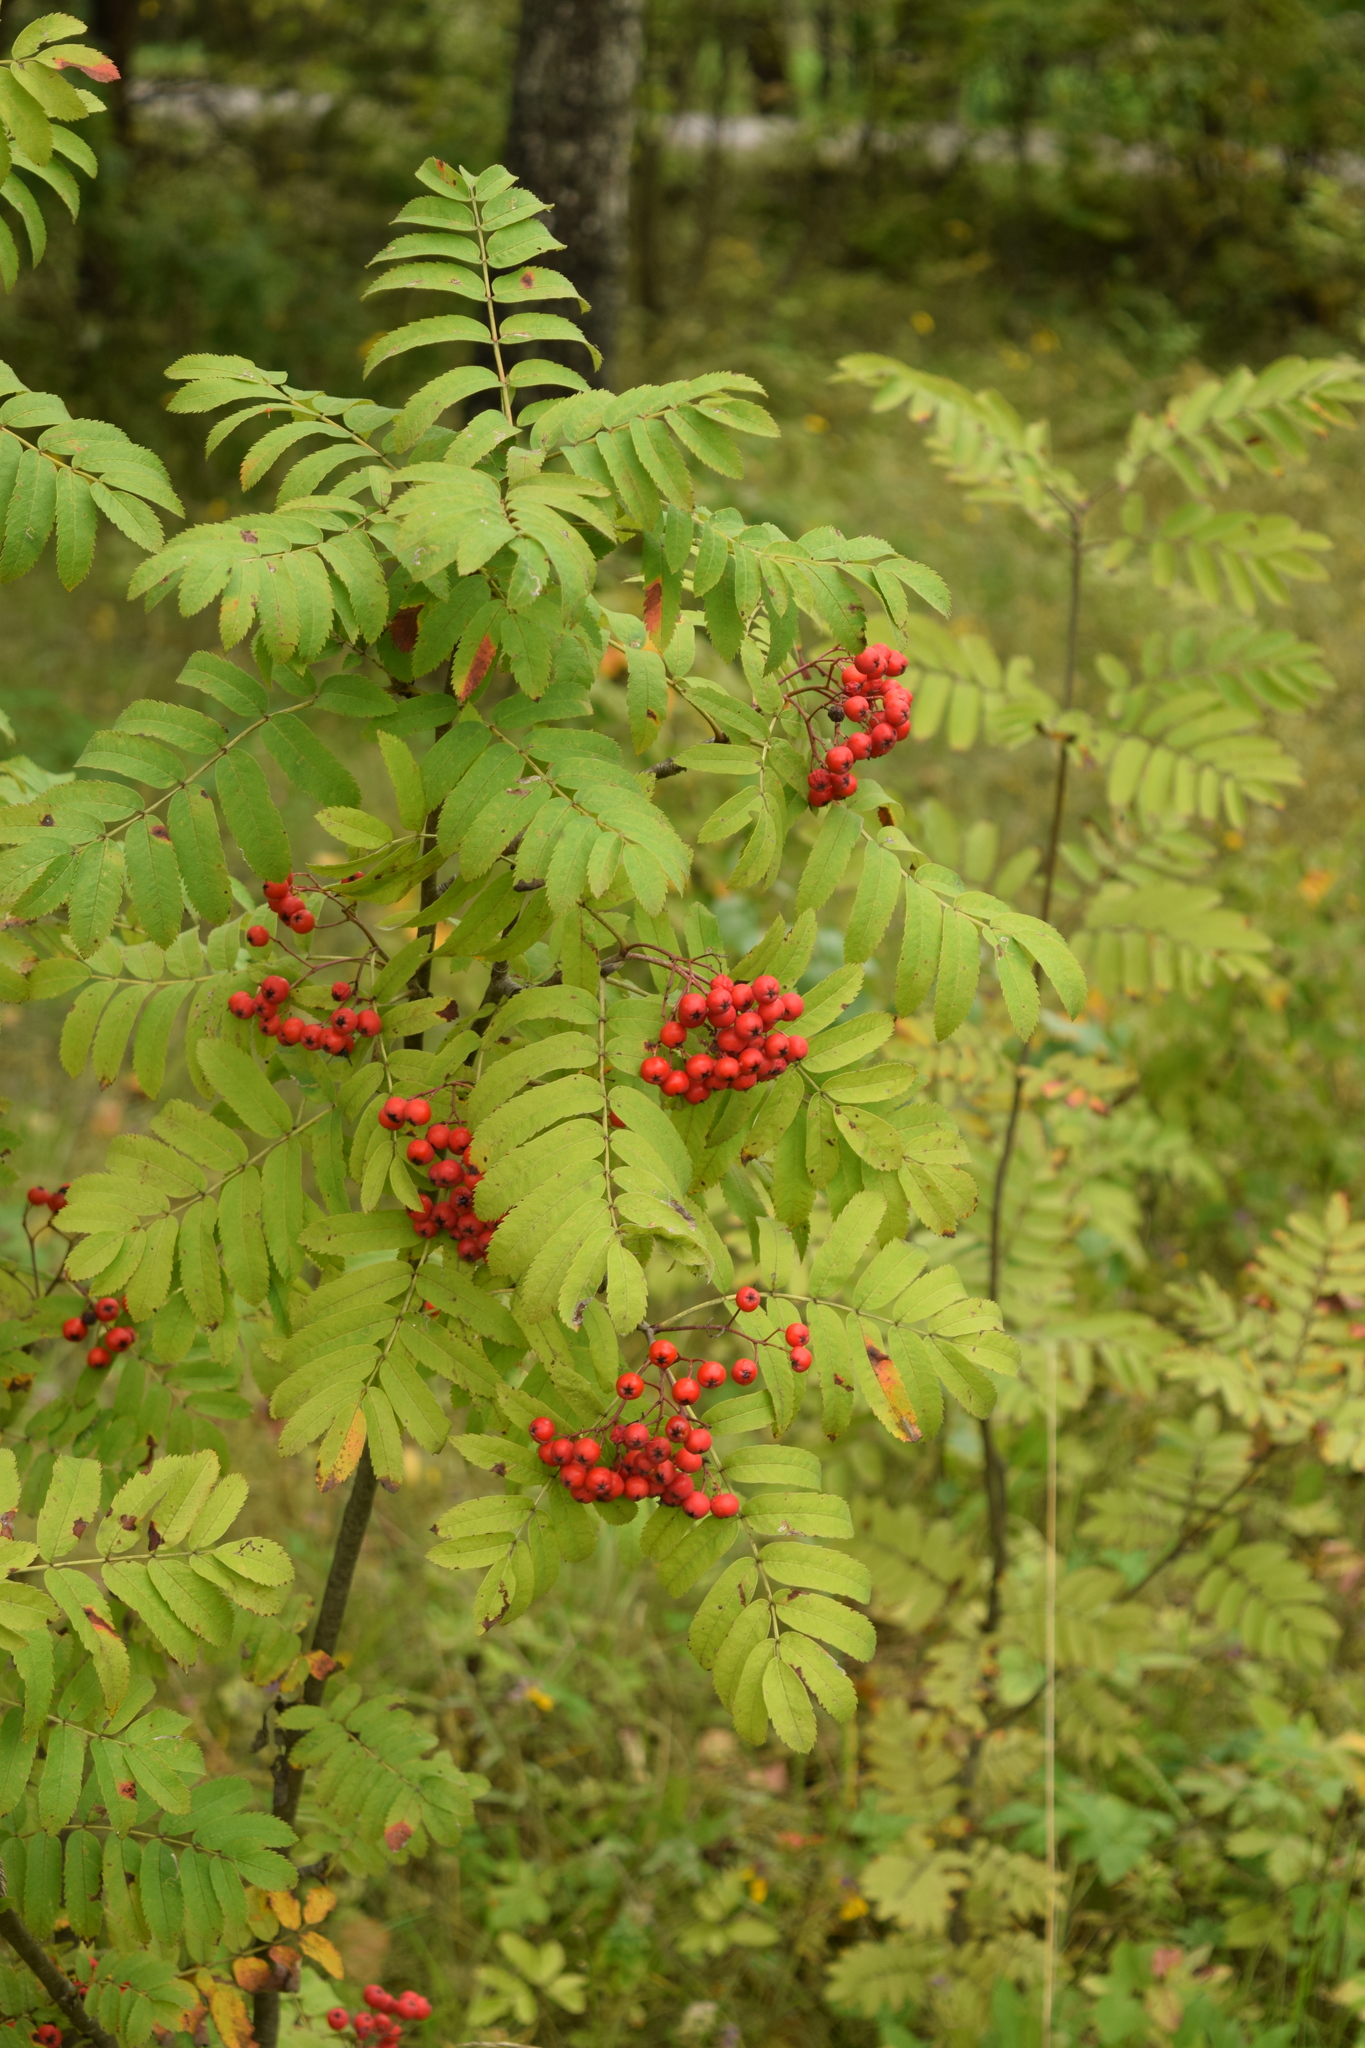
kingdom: Plantae
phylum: Tracheophyta
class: Magnoliopsida
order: Rosales
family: Rosaceae
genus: Sorbus
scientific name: Sorbus aucuparia
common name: Rowan
